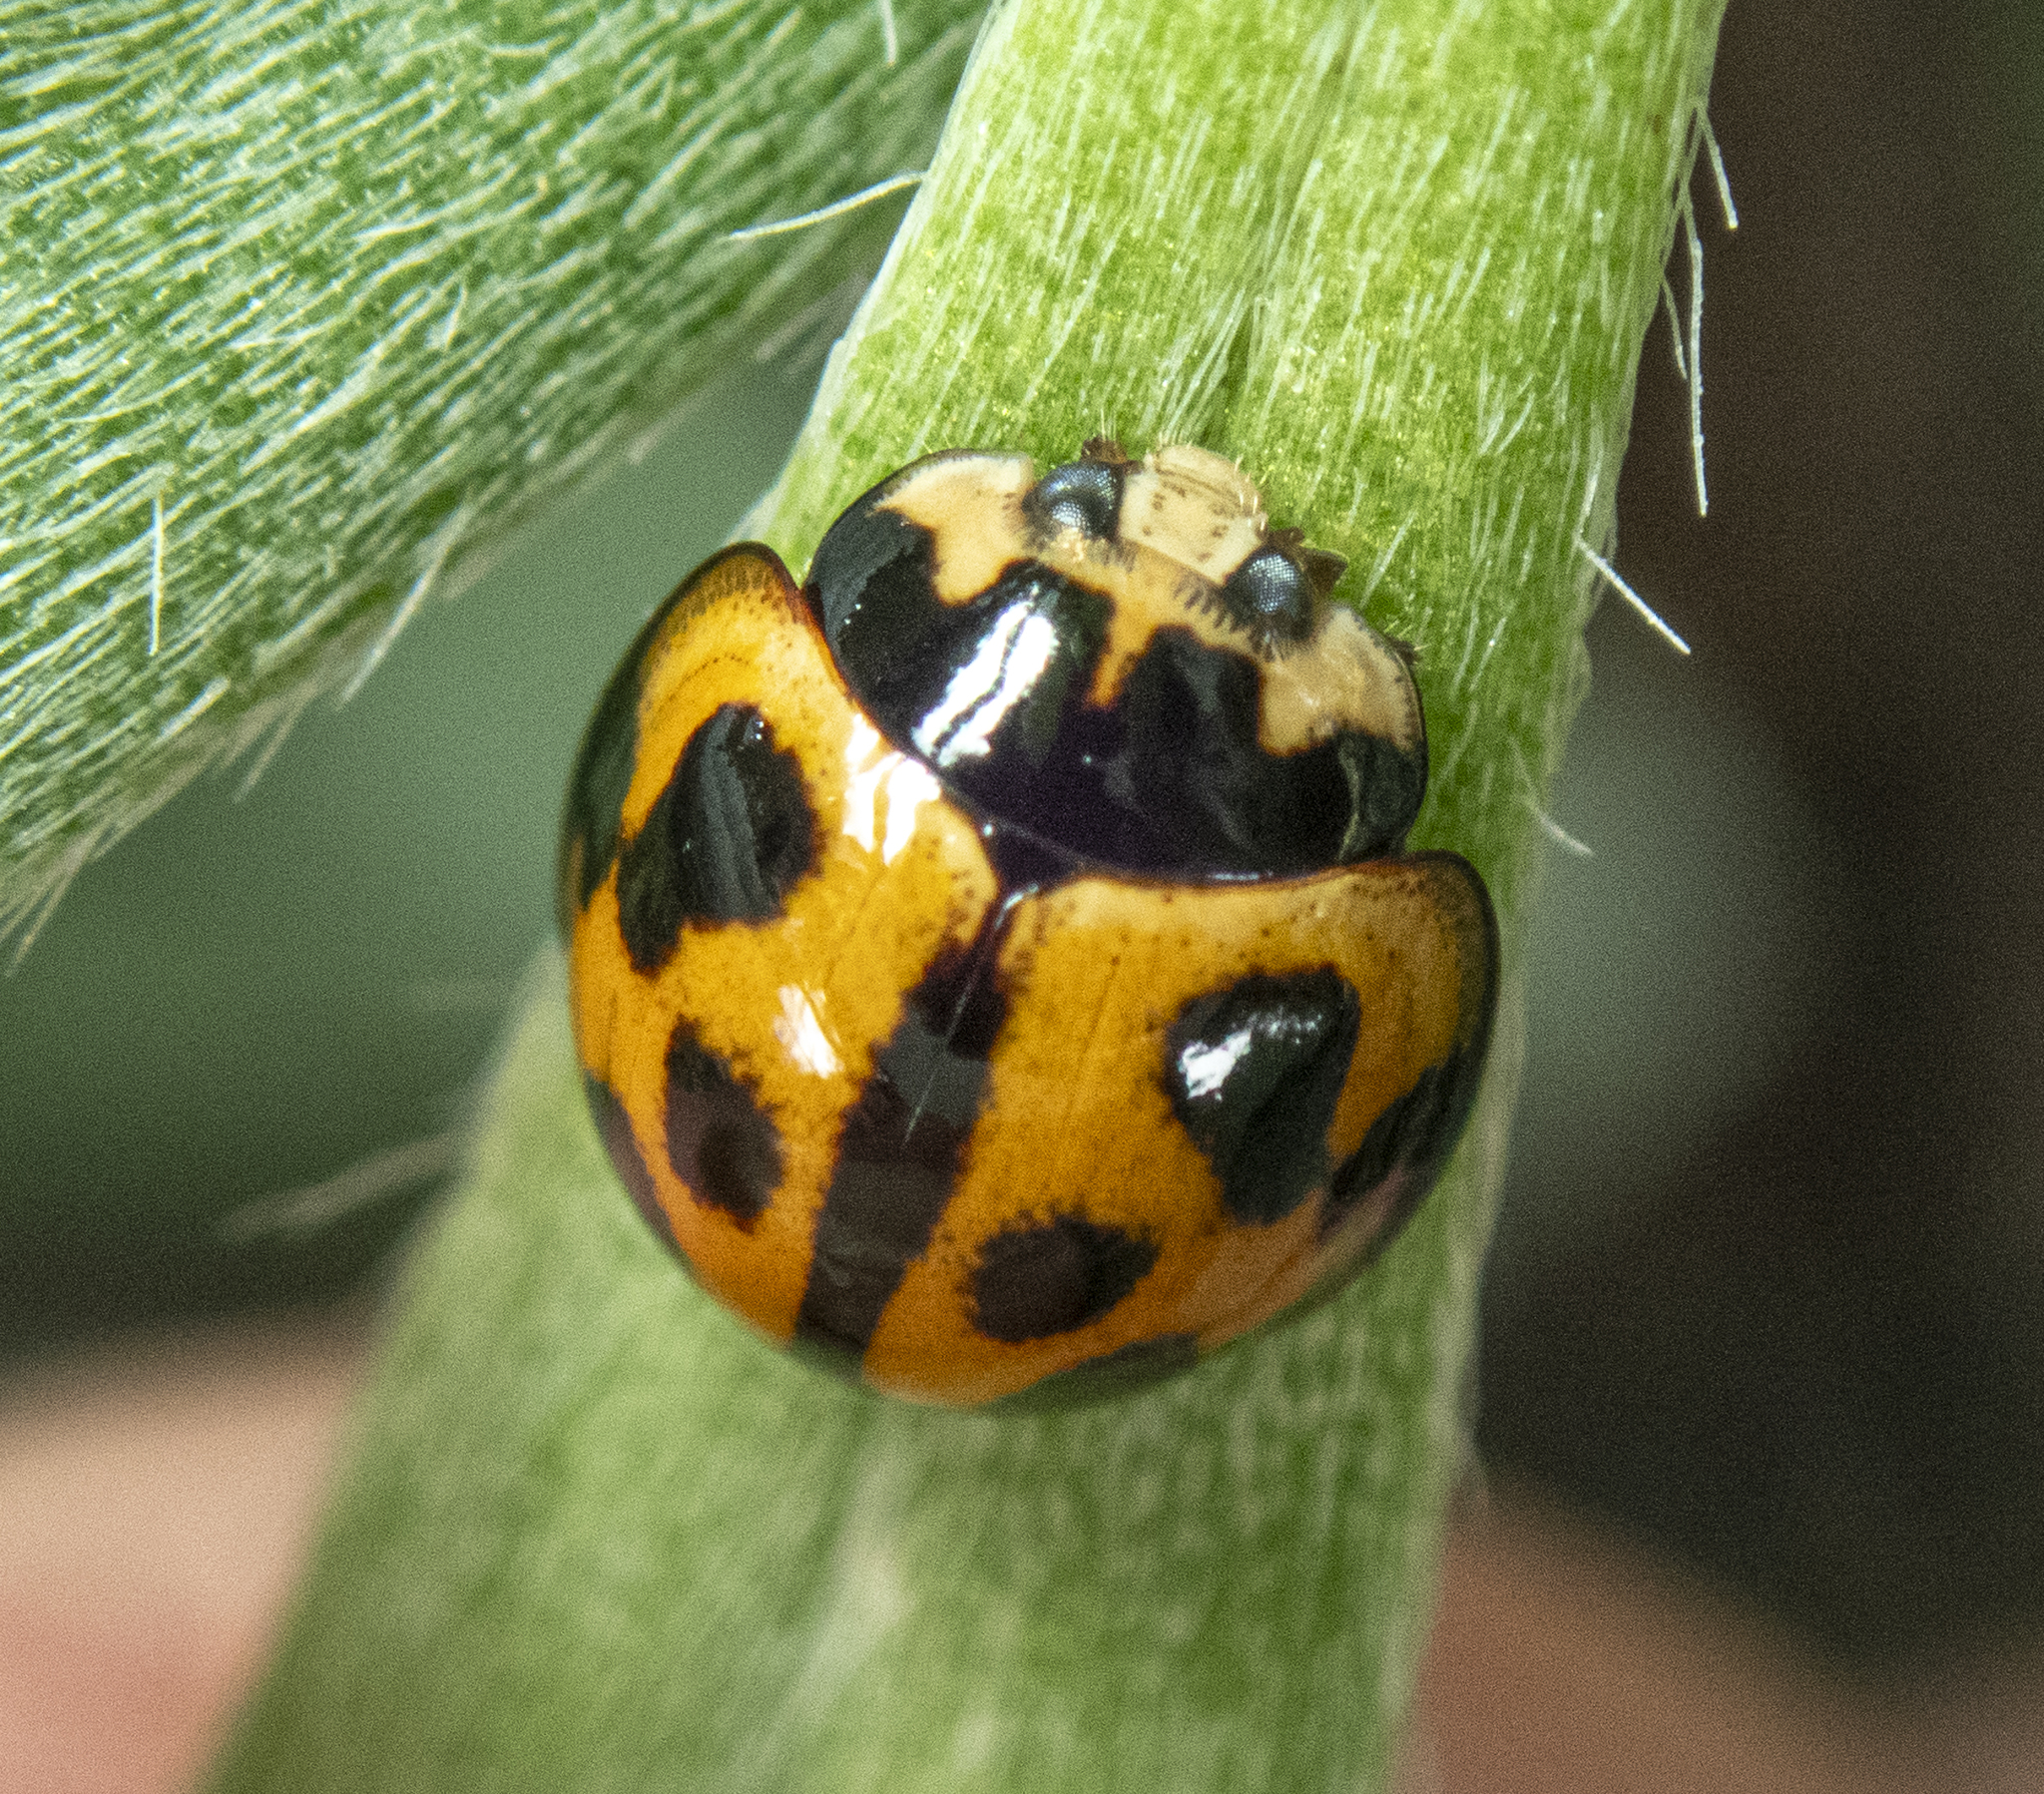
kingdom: Animalia
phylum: Arthropoda
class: Insecta
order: Coleoptera
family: Coccinellidae
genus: Coelophora
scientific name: Coelophora inaequalis
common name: Common australian lady beetle
